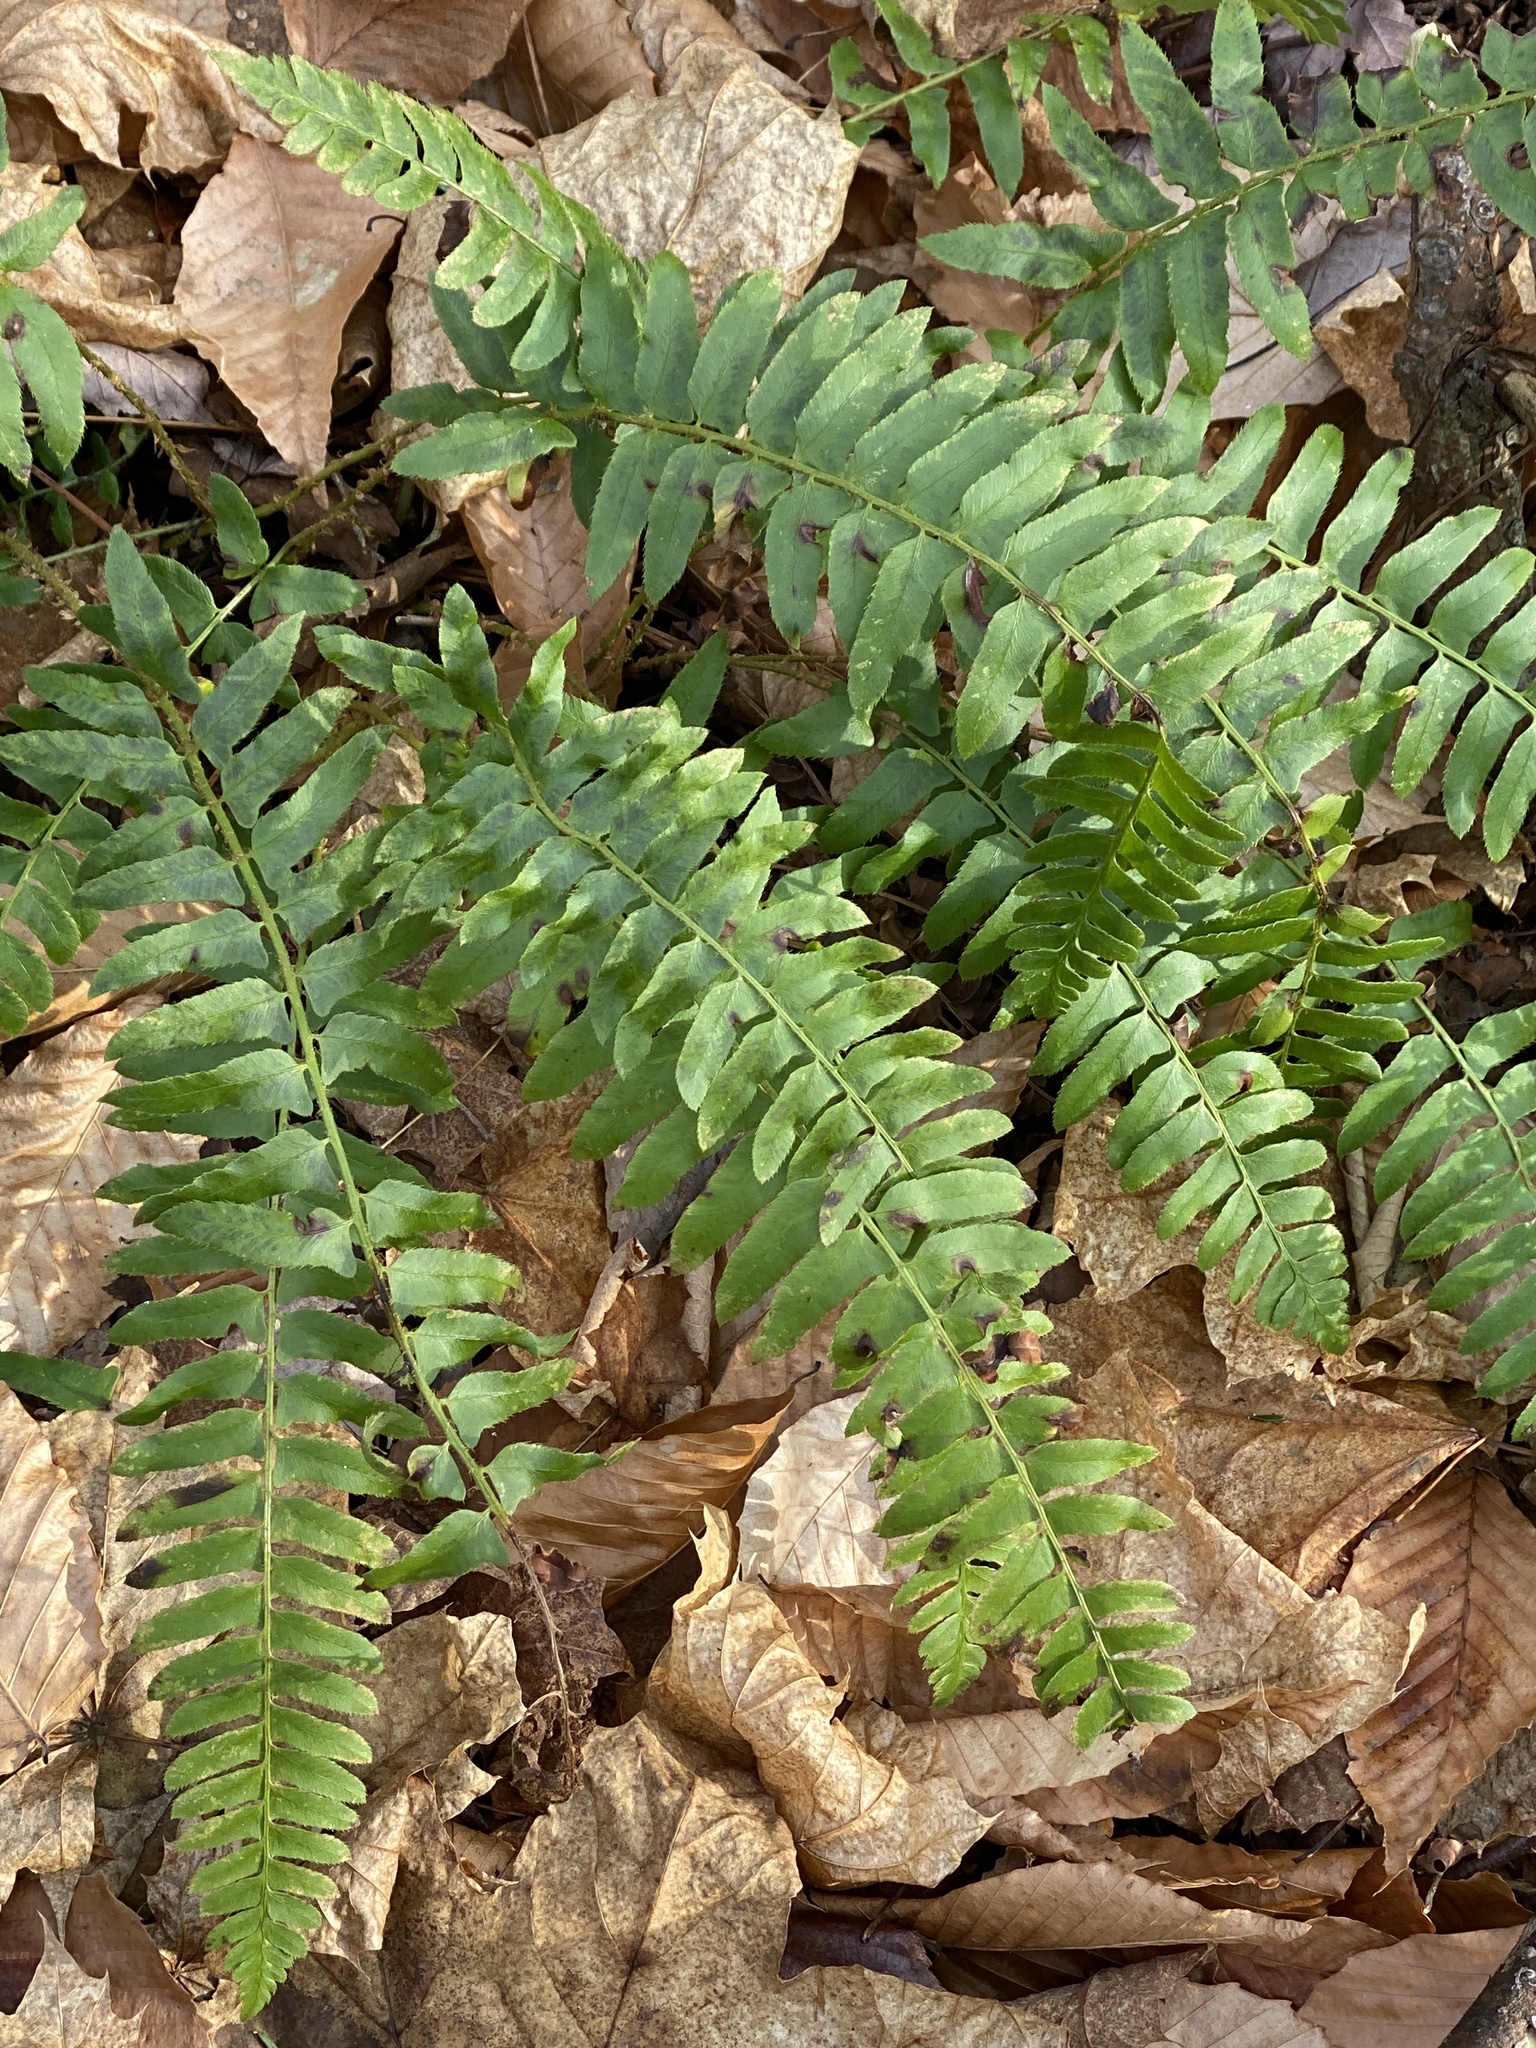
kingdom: Plantae
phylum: Tracheophyta
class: Polypodiopsida
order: Polypodiales
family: Dryopteridaceae
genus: Polystichum
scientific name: Polystichum acrostichoides
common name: Christmas fern
